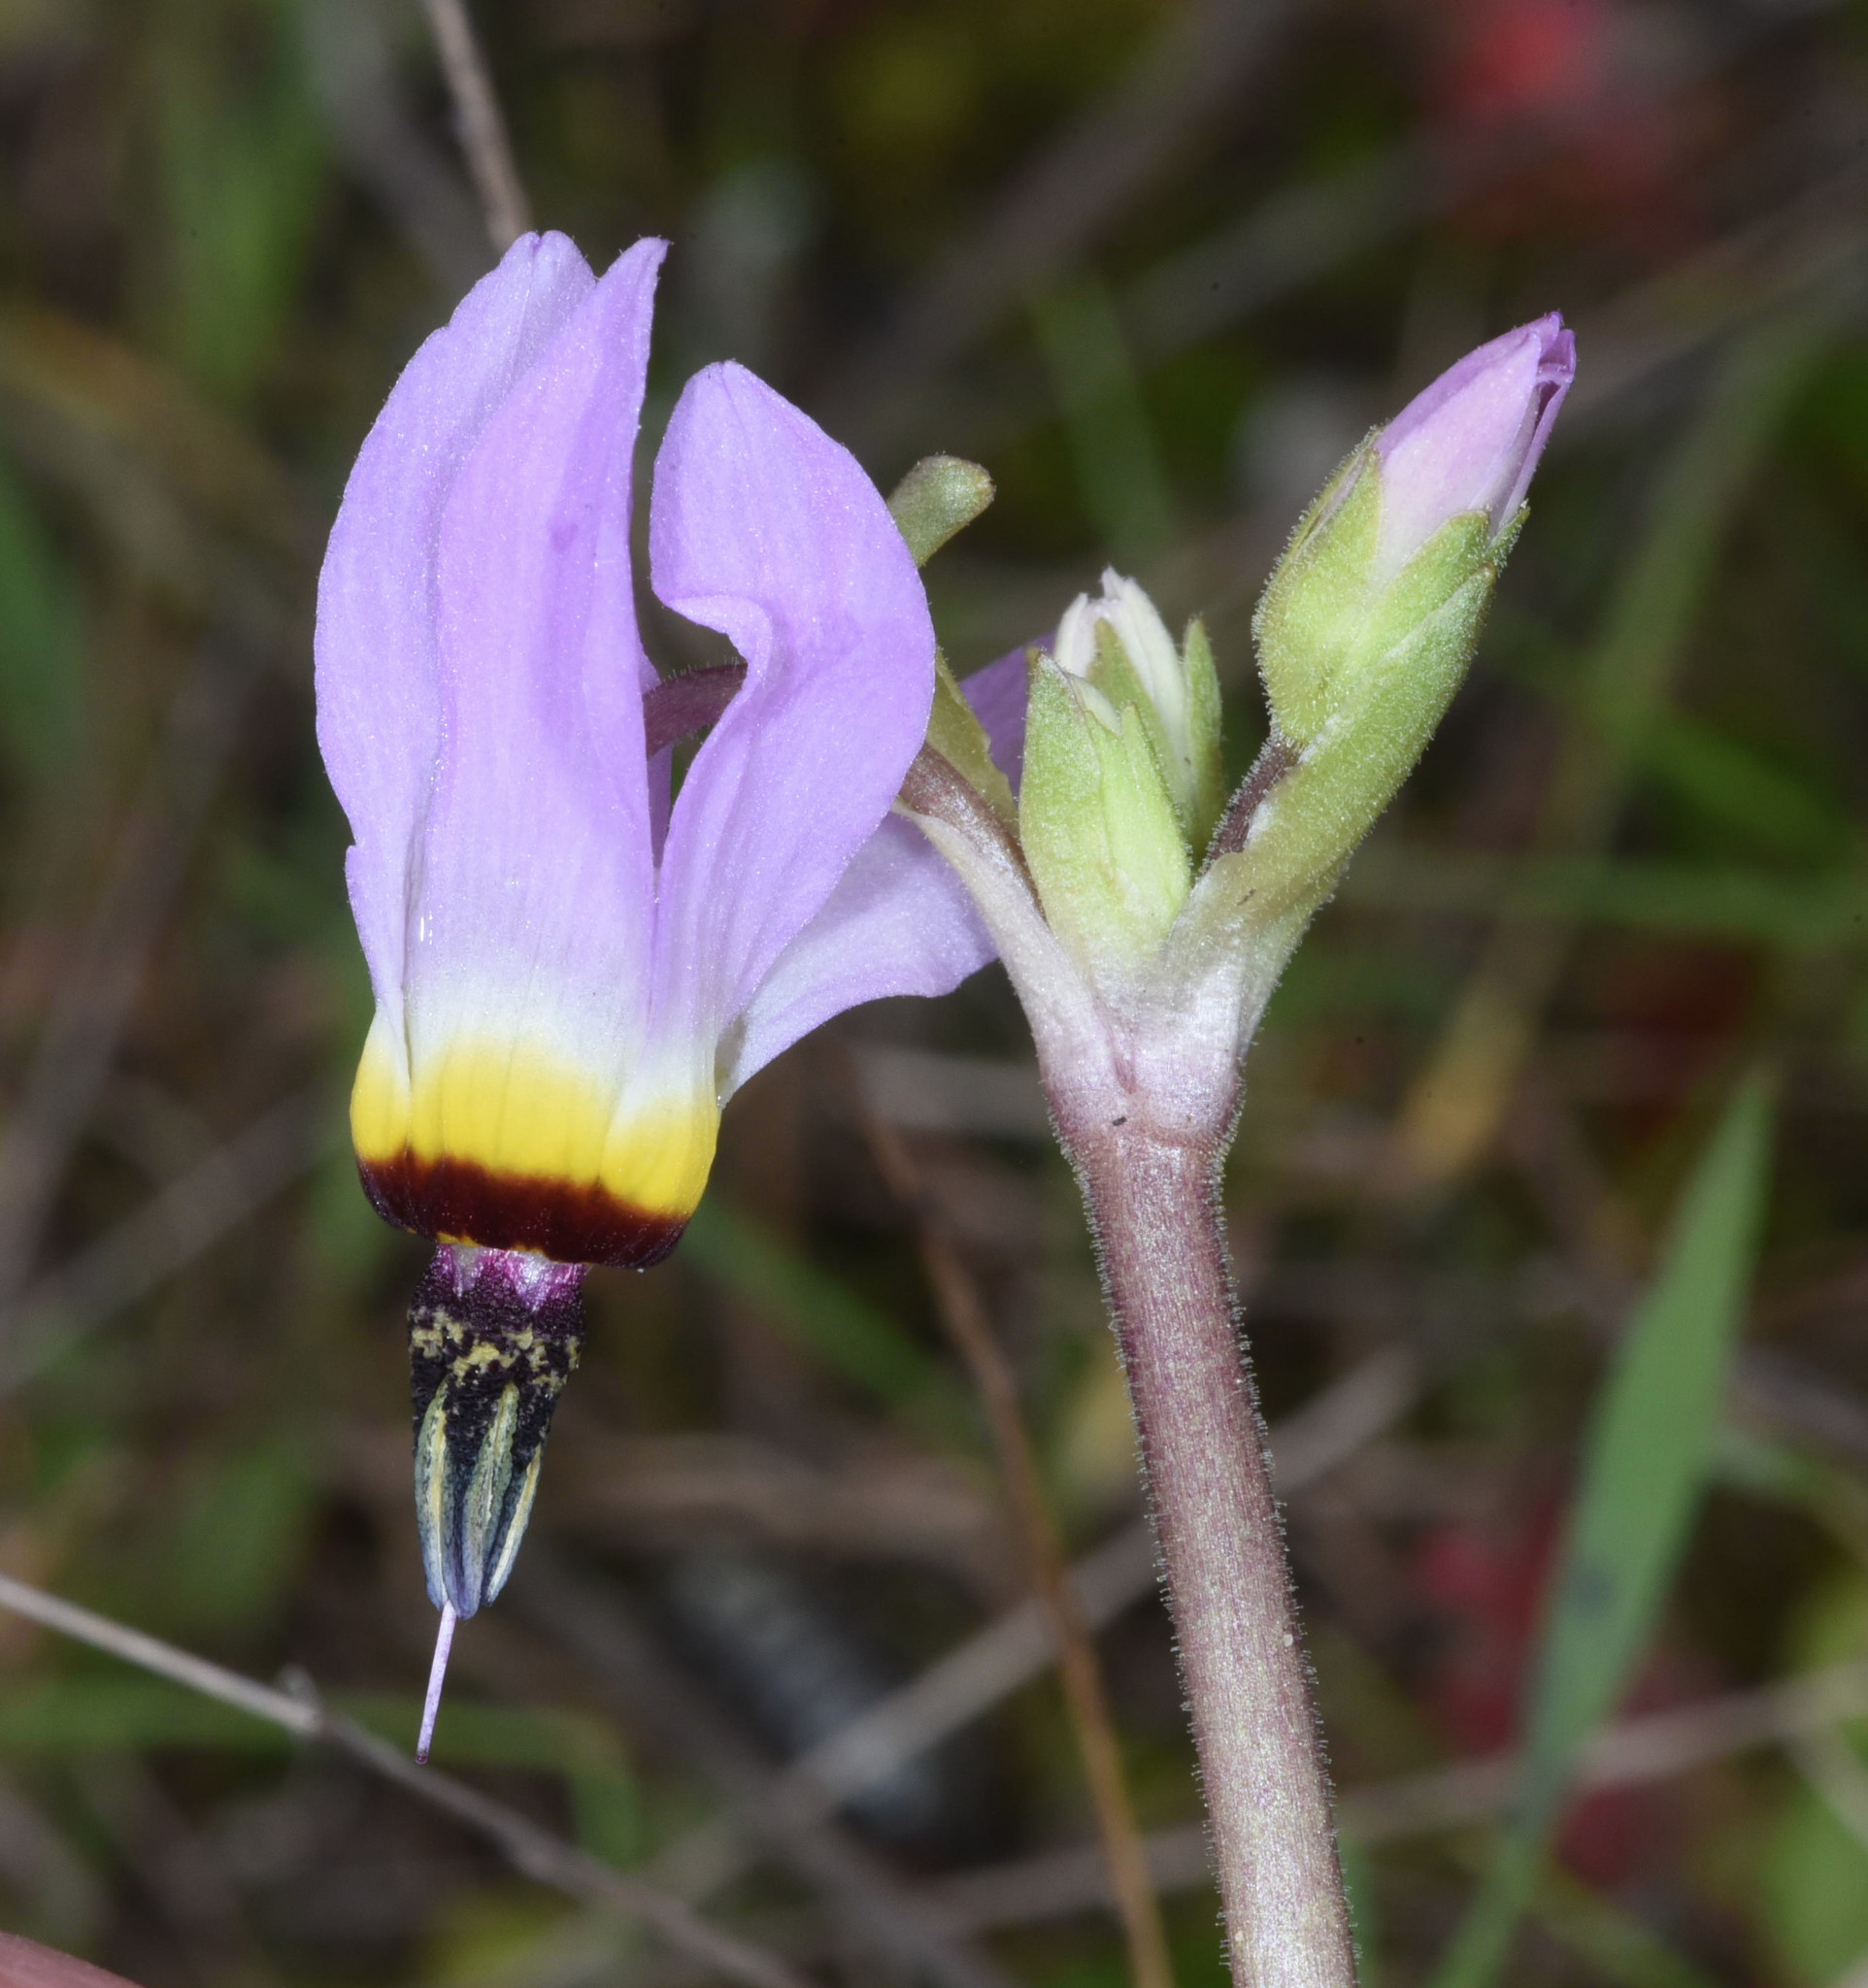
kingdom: Plantae
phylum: Tracheophyta
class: Magnoliopsida
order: Ericales
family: Primulaceae
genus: Dodecatheon
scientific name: Dodecatheon clevelandii
